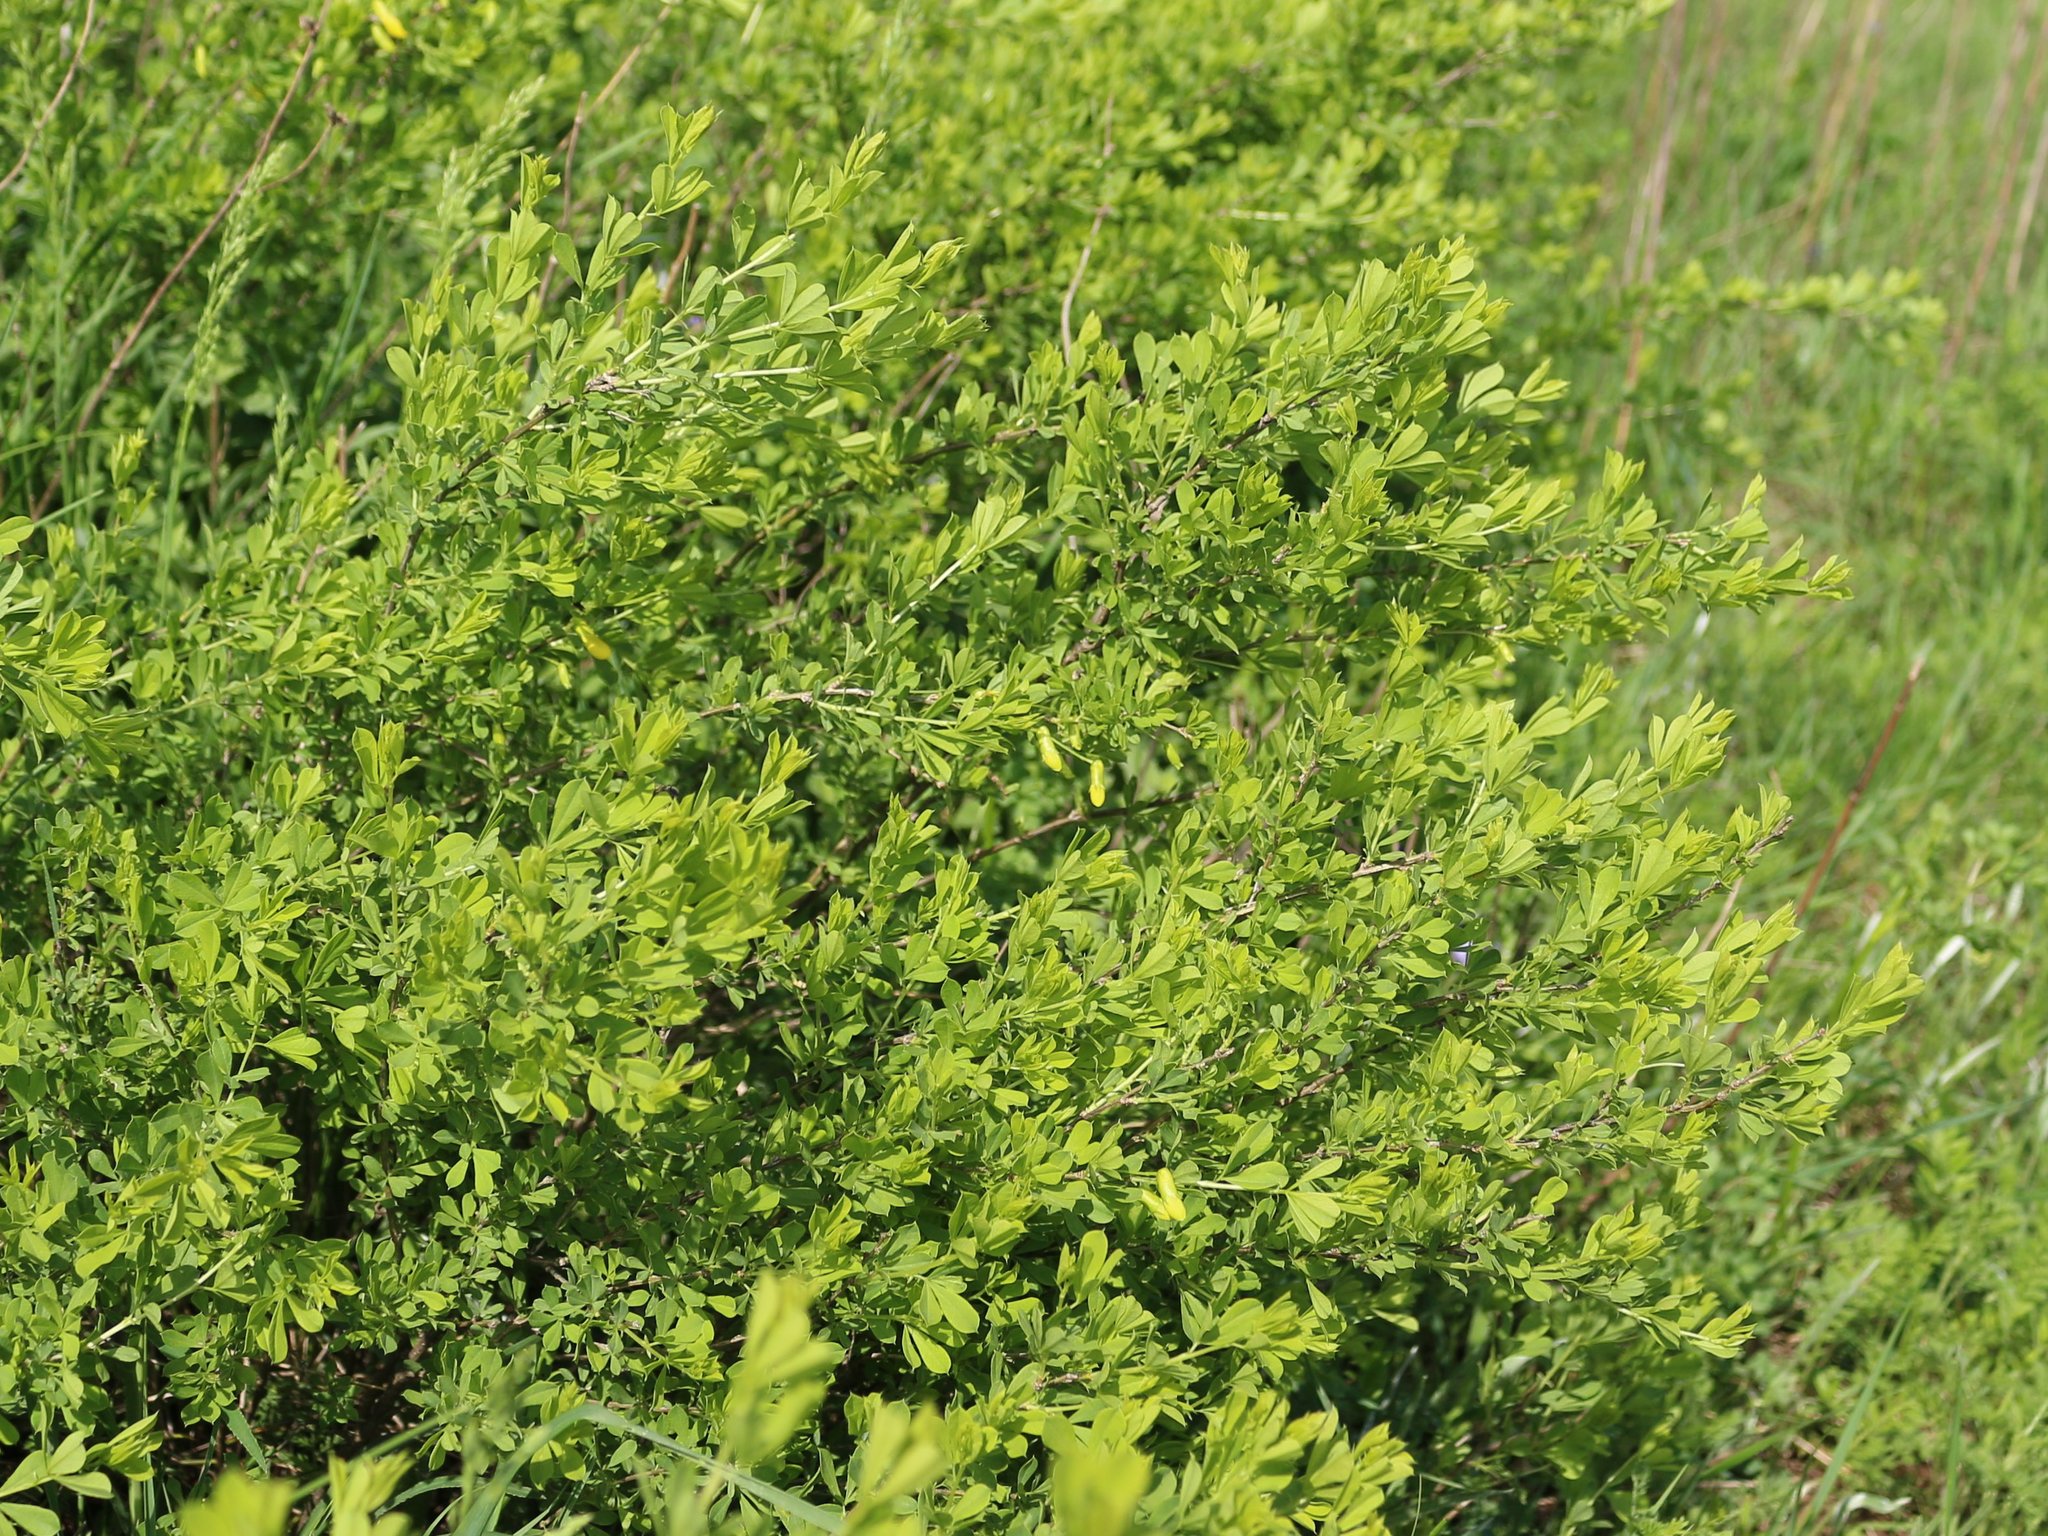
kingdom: Plantae
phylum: Tracheophyta
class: Magnoliopsida
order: Fabales
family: Fabaceae
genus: Caragana
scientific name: Caragana frutex
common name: Russian peashrub
